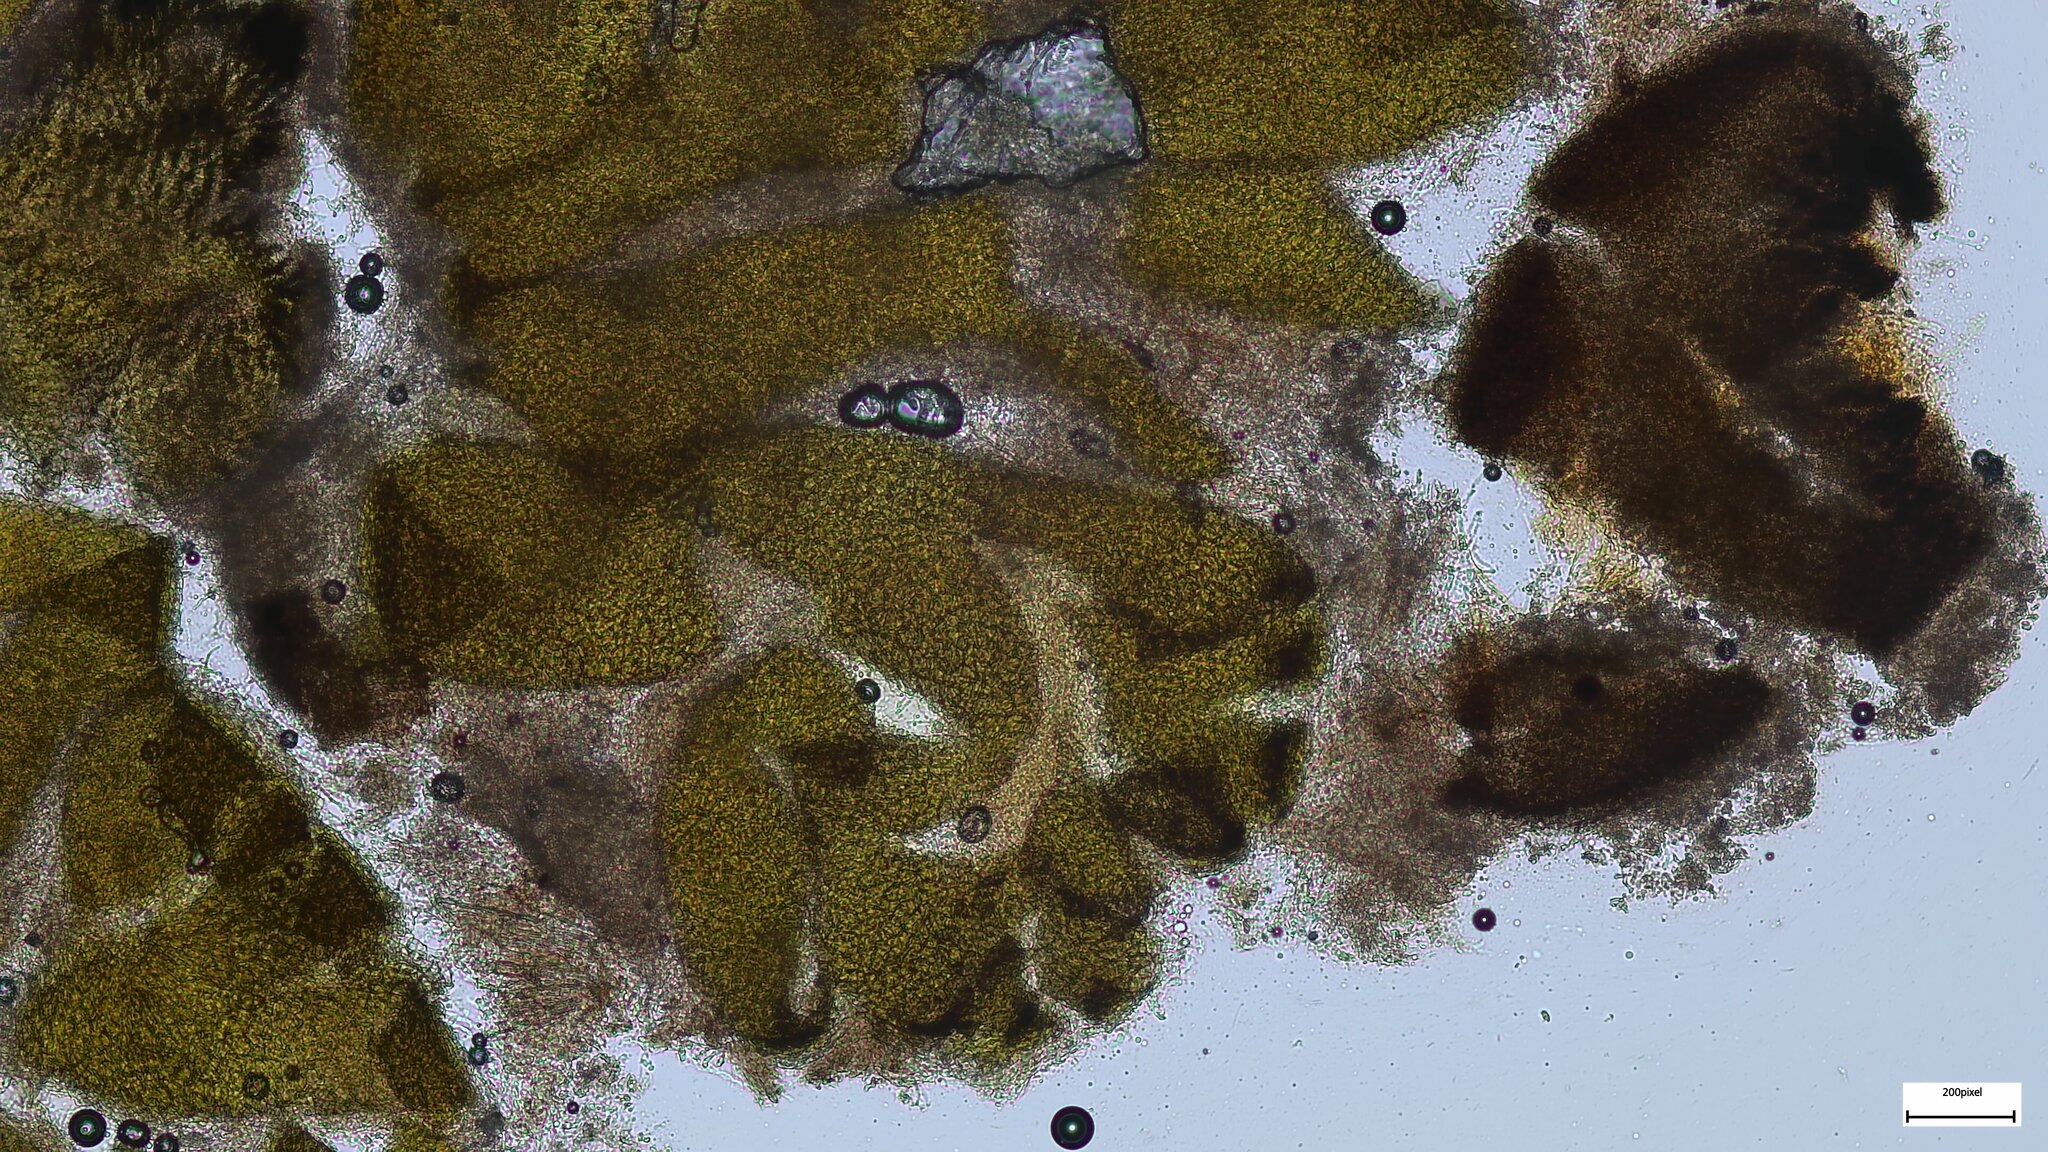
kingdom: Fungi
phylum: Ascomycota
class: Sordariomycetes
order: Sordariales
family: Lasiosphaeriaceae
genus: Lasiosphaeria
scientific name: Lasiosphaeria ovina
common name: Woolly woodwart
